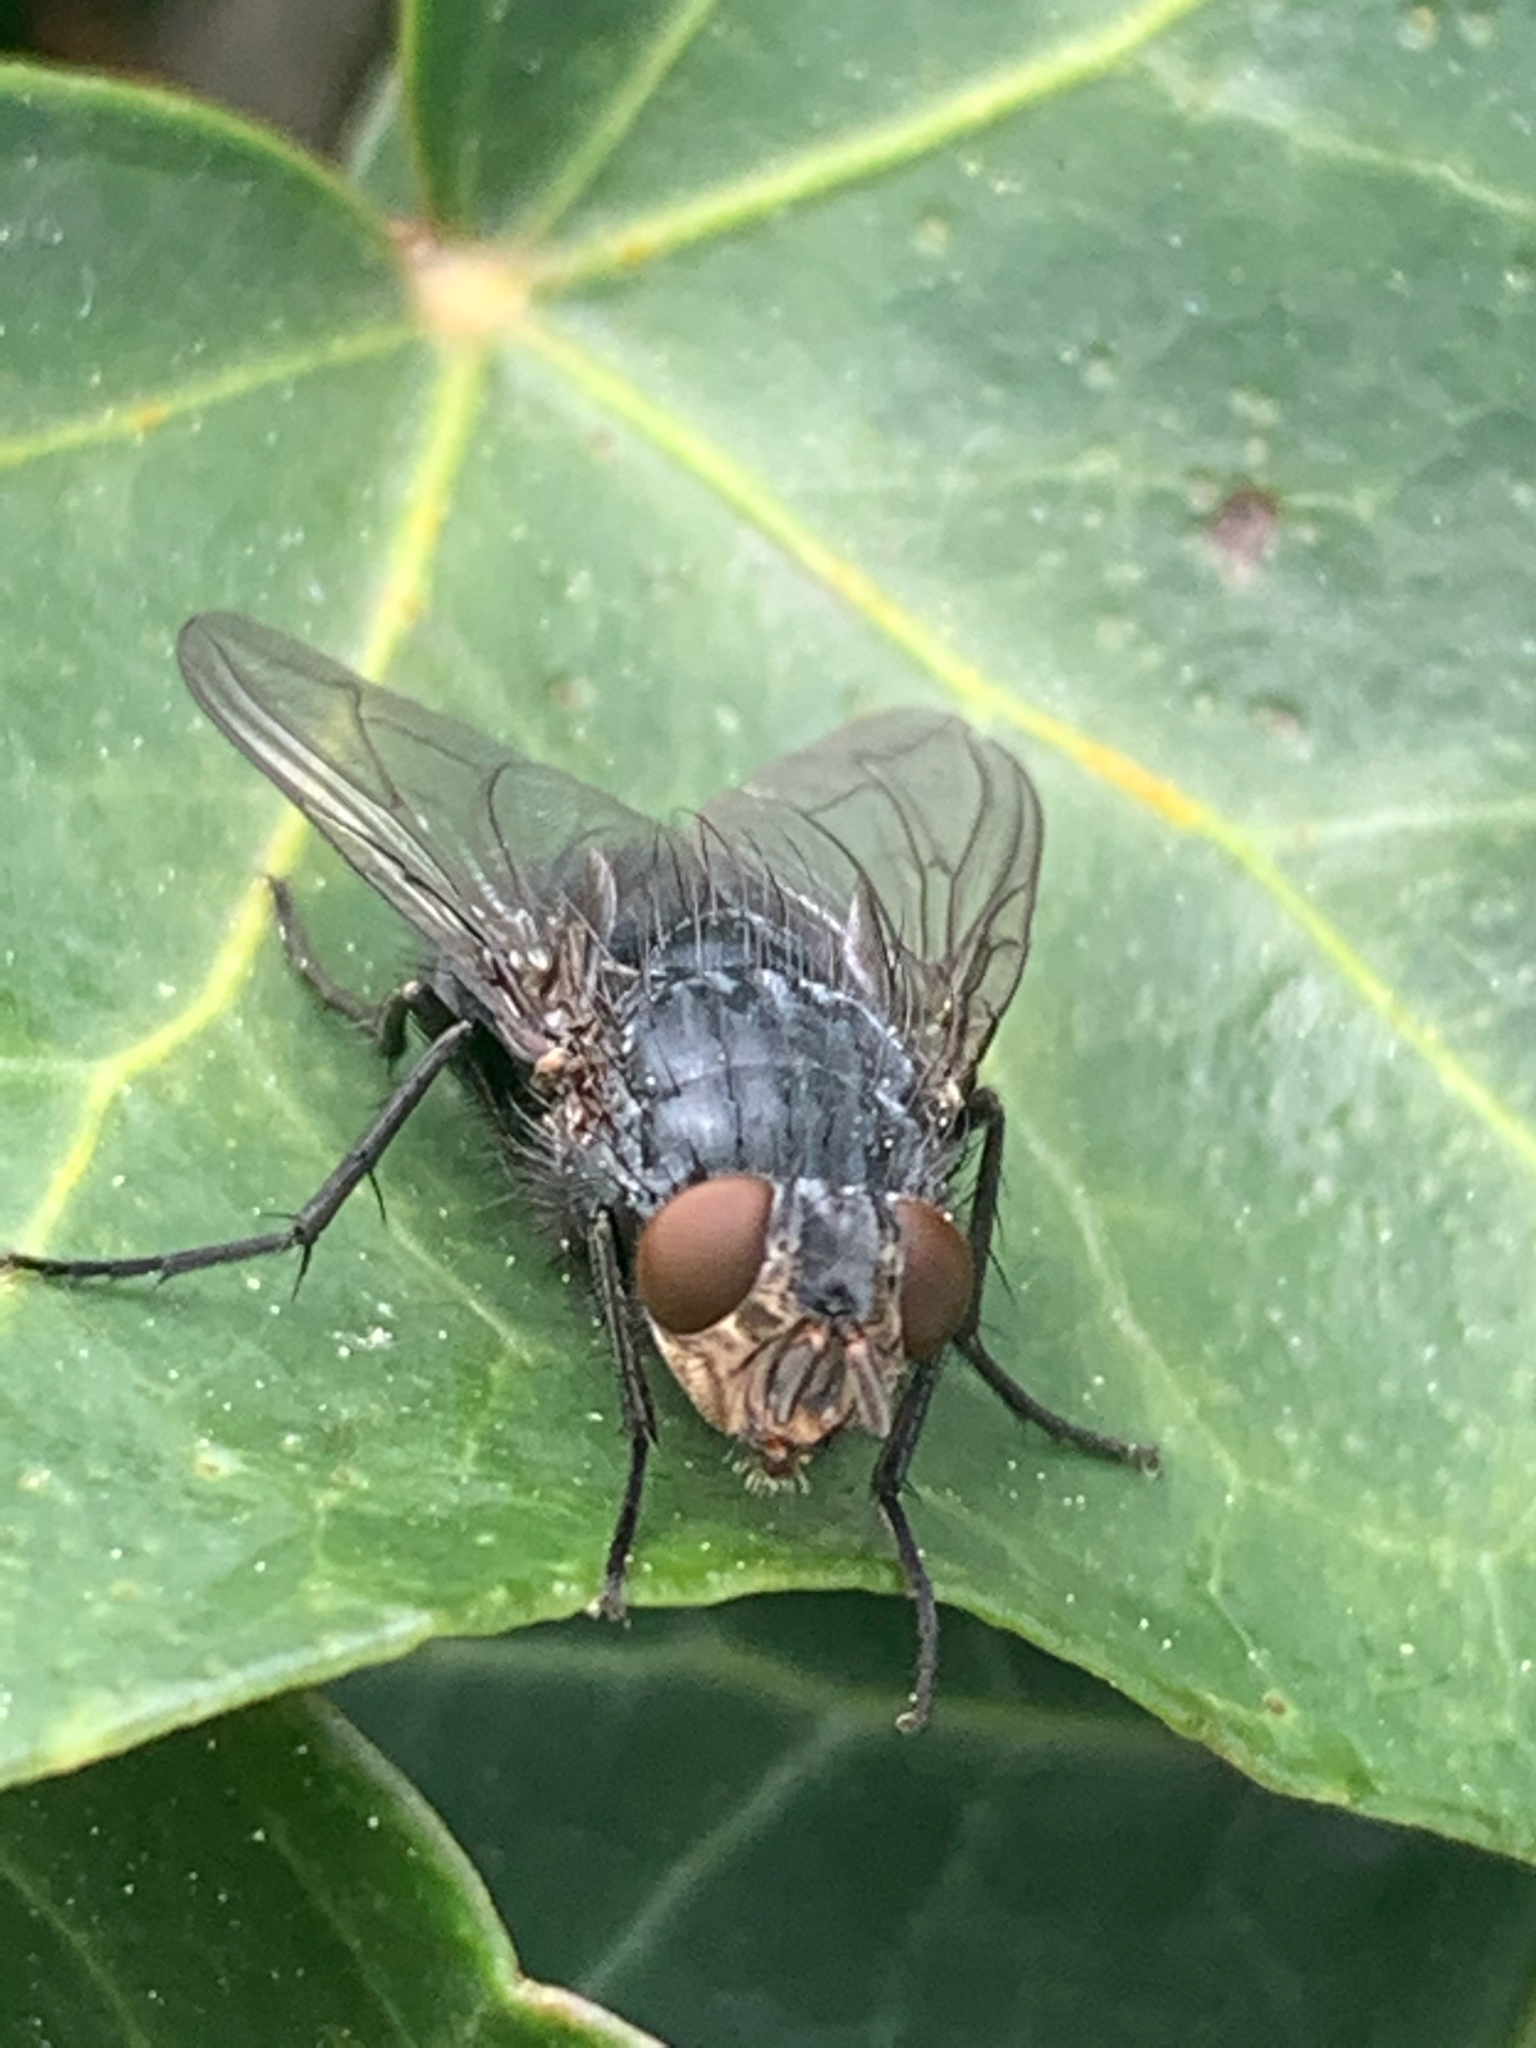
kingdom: Animalia
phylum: Arthropoda
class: Insecta
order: Diptera
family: Calliphoridae
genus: Calliphora
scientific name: Calliphora vicina
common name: Common blow flie
